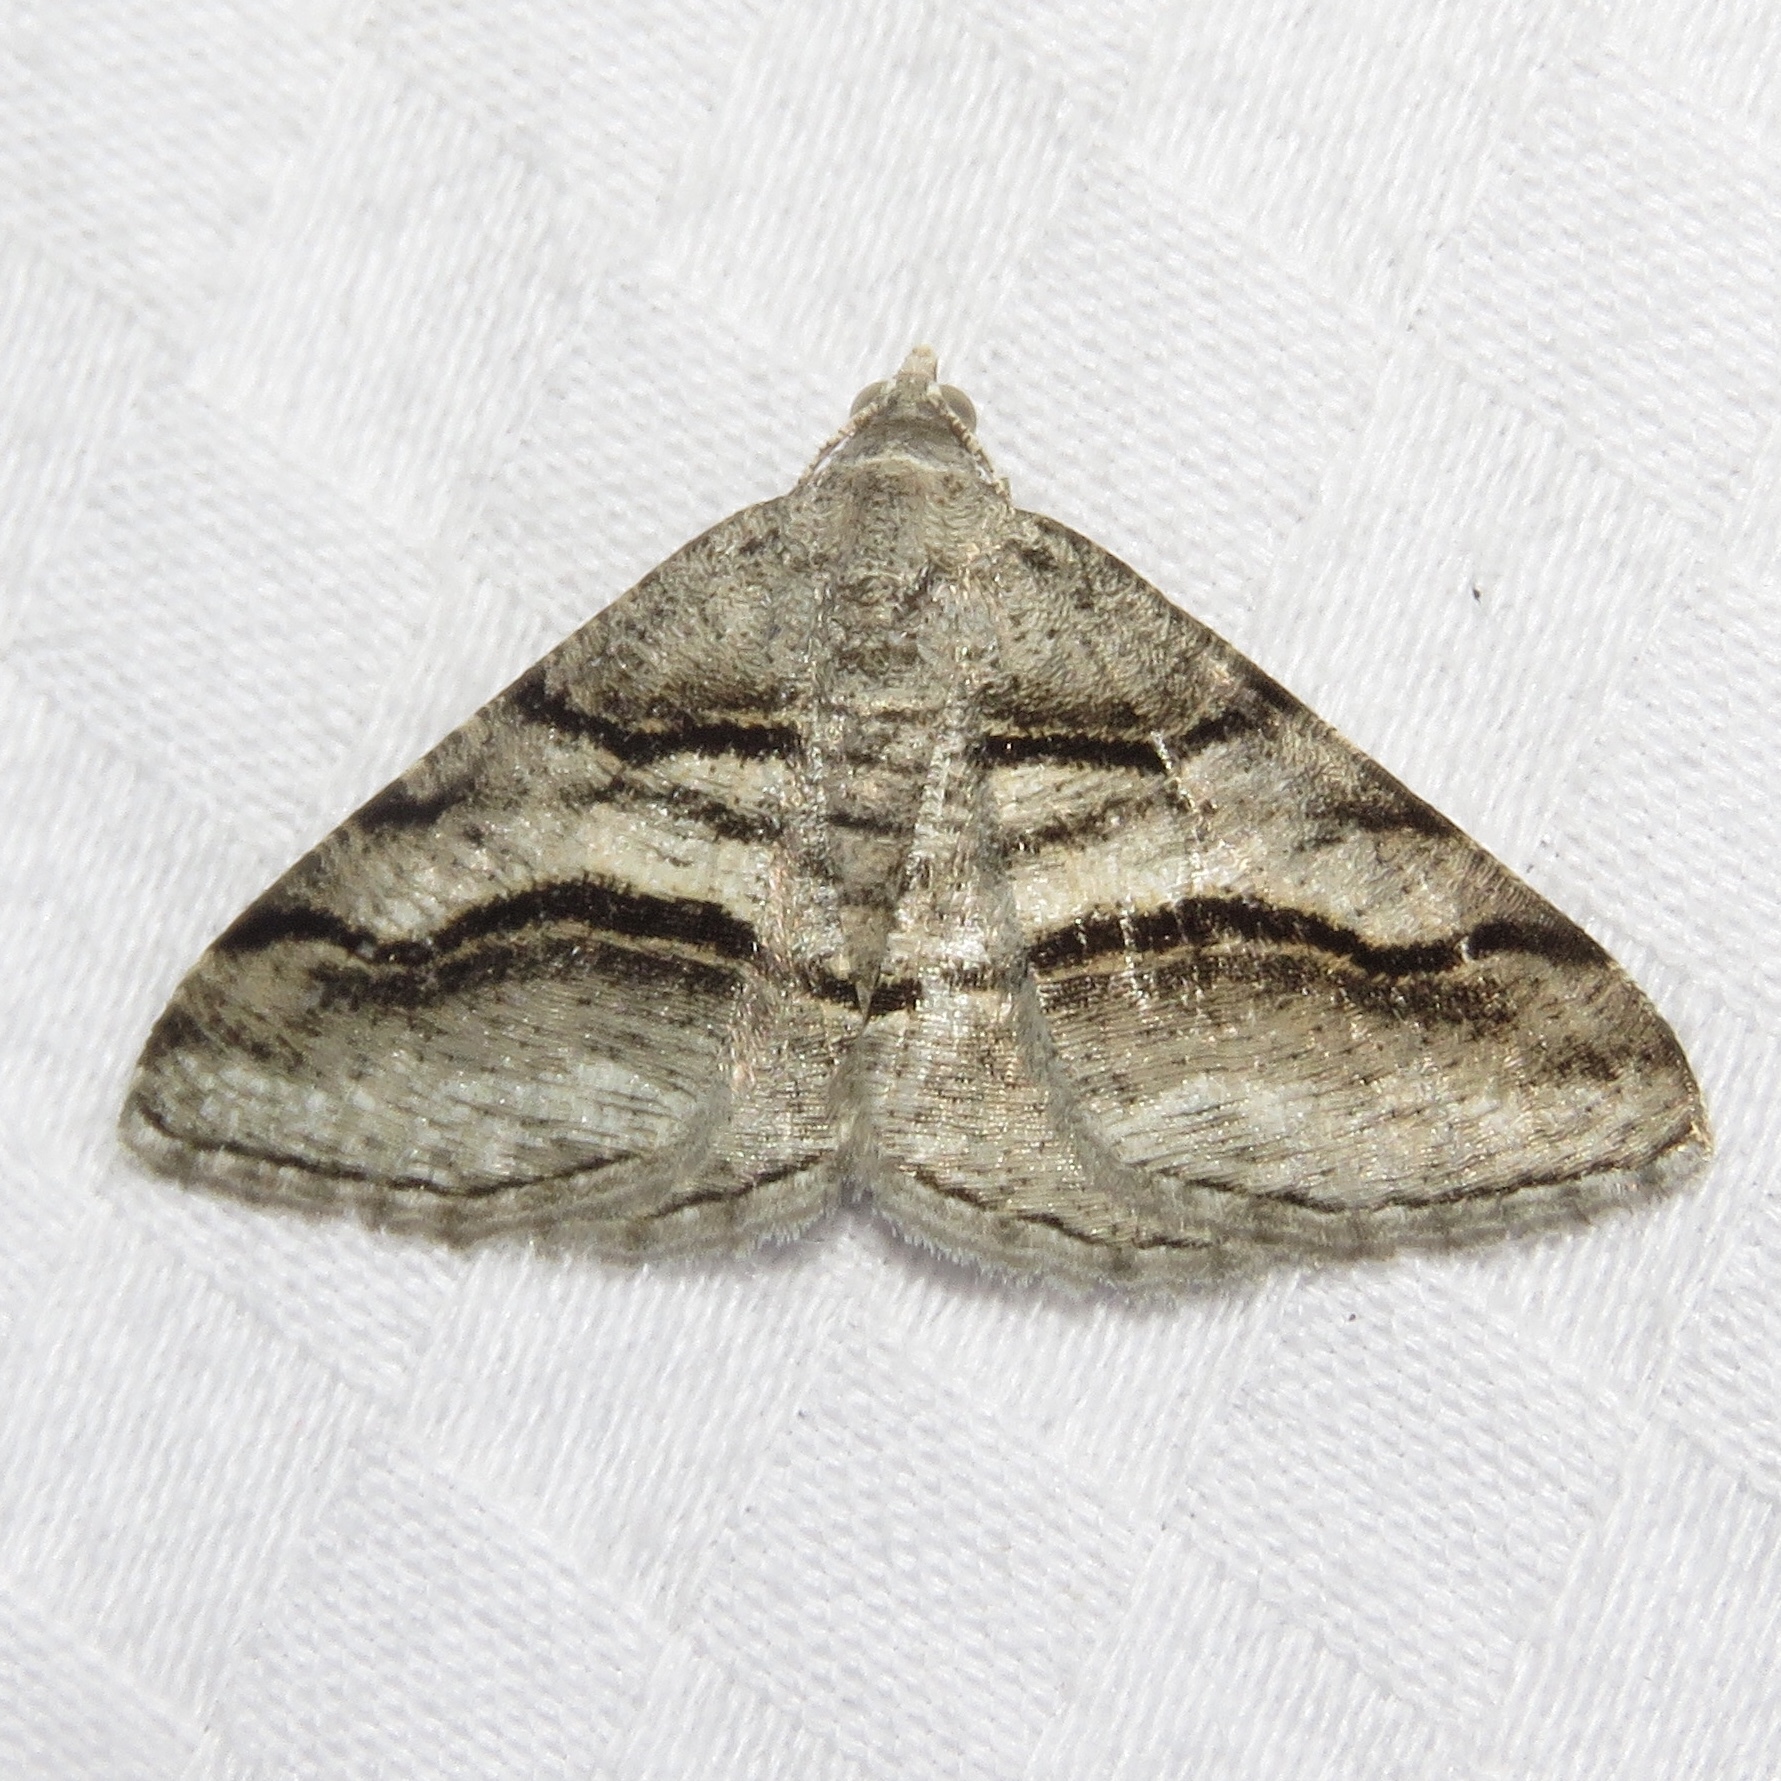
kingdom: Animalia
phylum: Arthropoda
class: Insecta
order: Lepidoptera
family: Geometridae
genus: Digrammia
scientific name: Digrammia continuata
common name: Curve-lined angle
